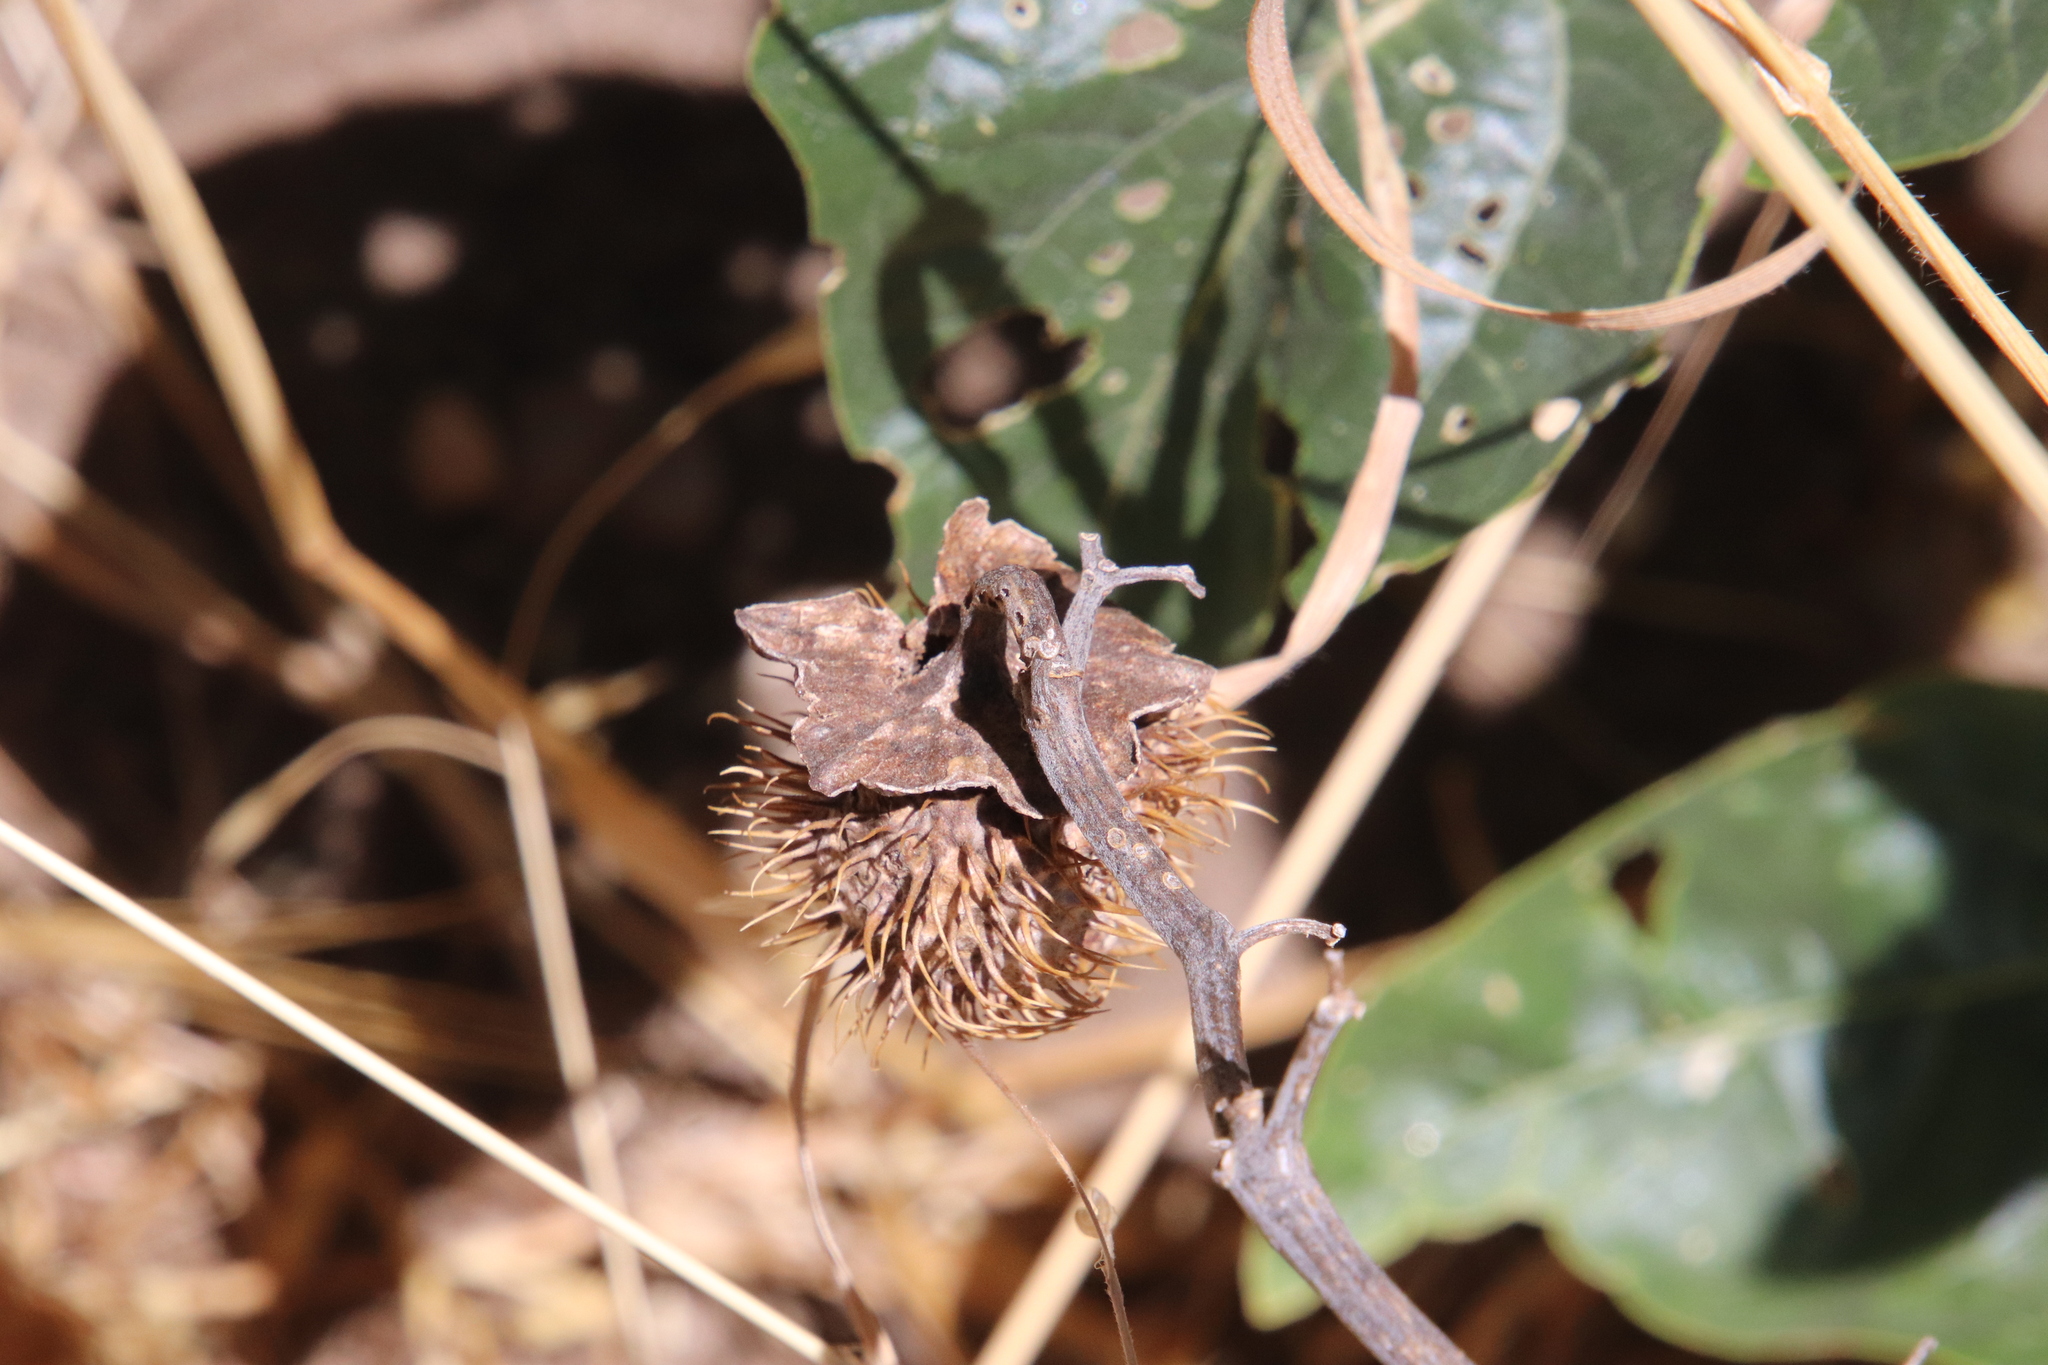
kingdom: Plantae
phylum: Tracheophyta
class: Magnoliopsida
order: Solanales
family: Solanaceae
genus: Datura
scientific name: Datura wrightii
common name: Sacred thorn-apple
